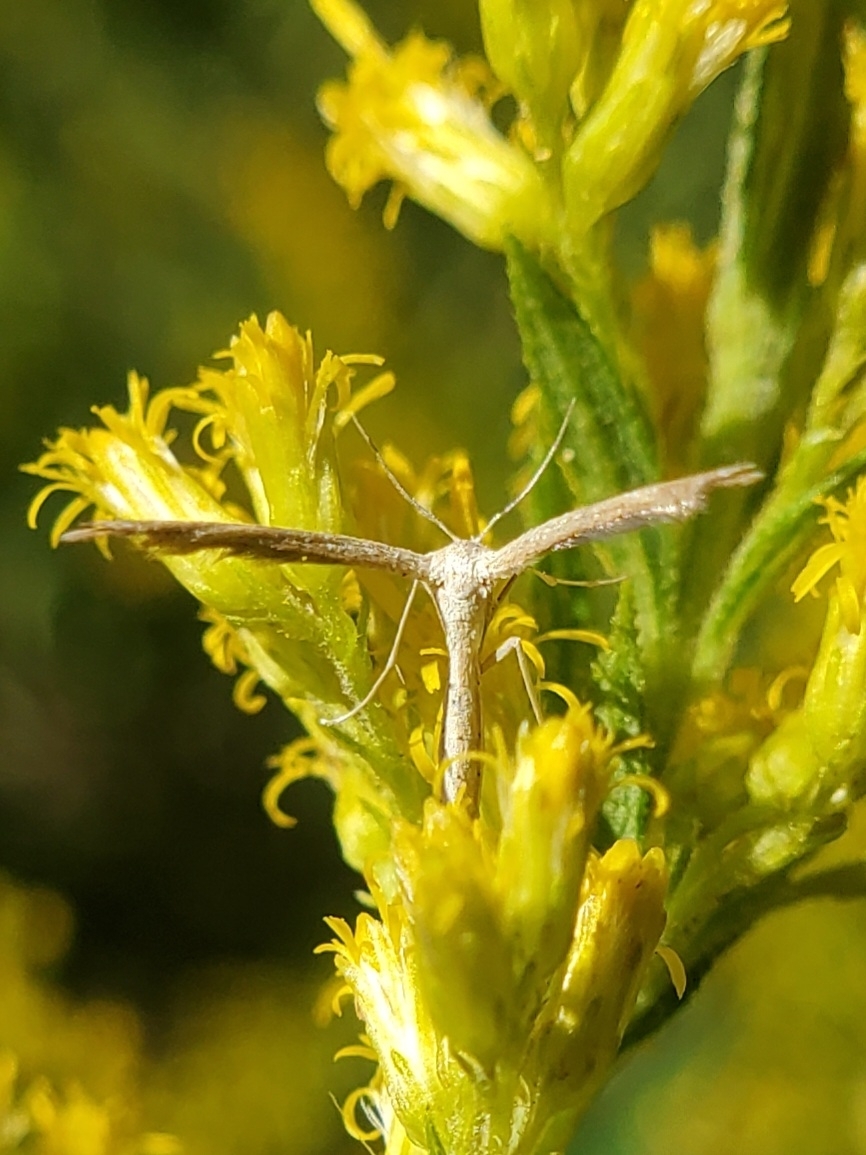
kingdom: Animalia
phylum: Arthropoda
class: Insecta
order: Lepidoptera
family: Pterophoridae
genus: Lioptilodes
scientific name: Lioptilodes albistriolatus
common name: Moth
